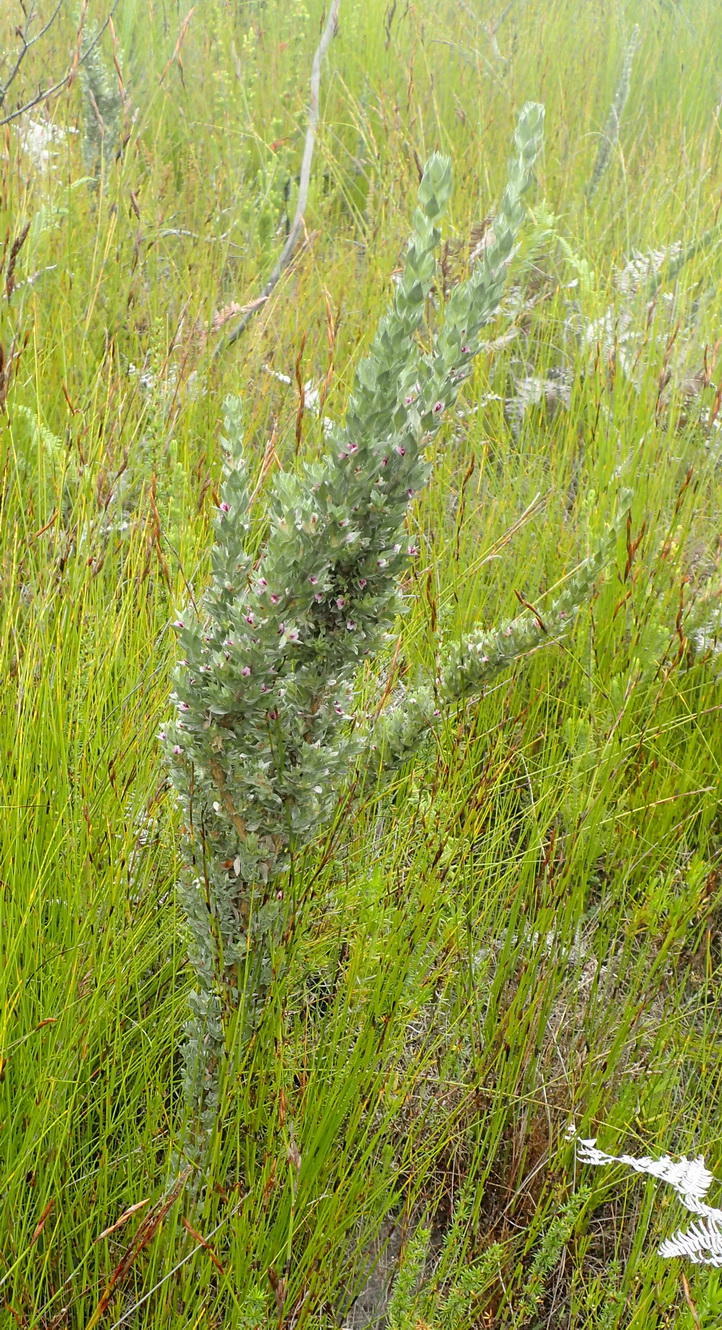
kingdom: Plantae
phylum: Tracheophyta
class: Magnoliopsida
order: Fabales
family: Fabaceae
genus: Amphithalea
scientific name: Amphithalea fourcadei
